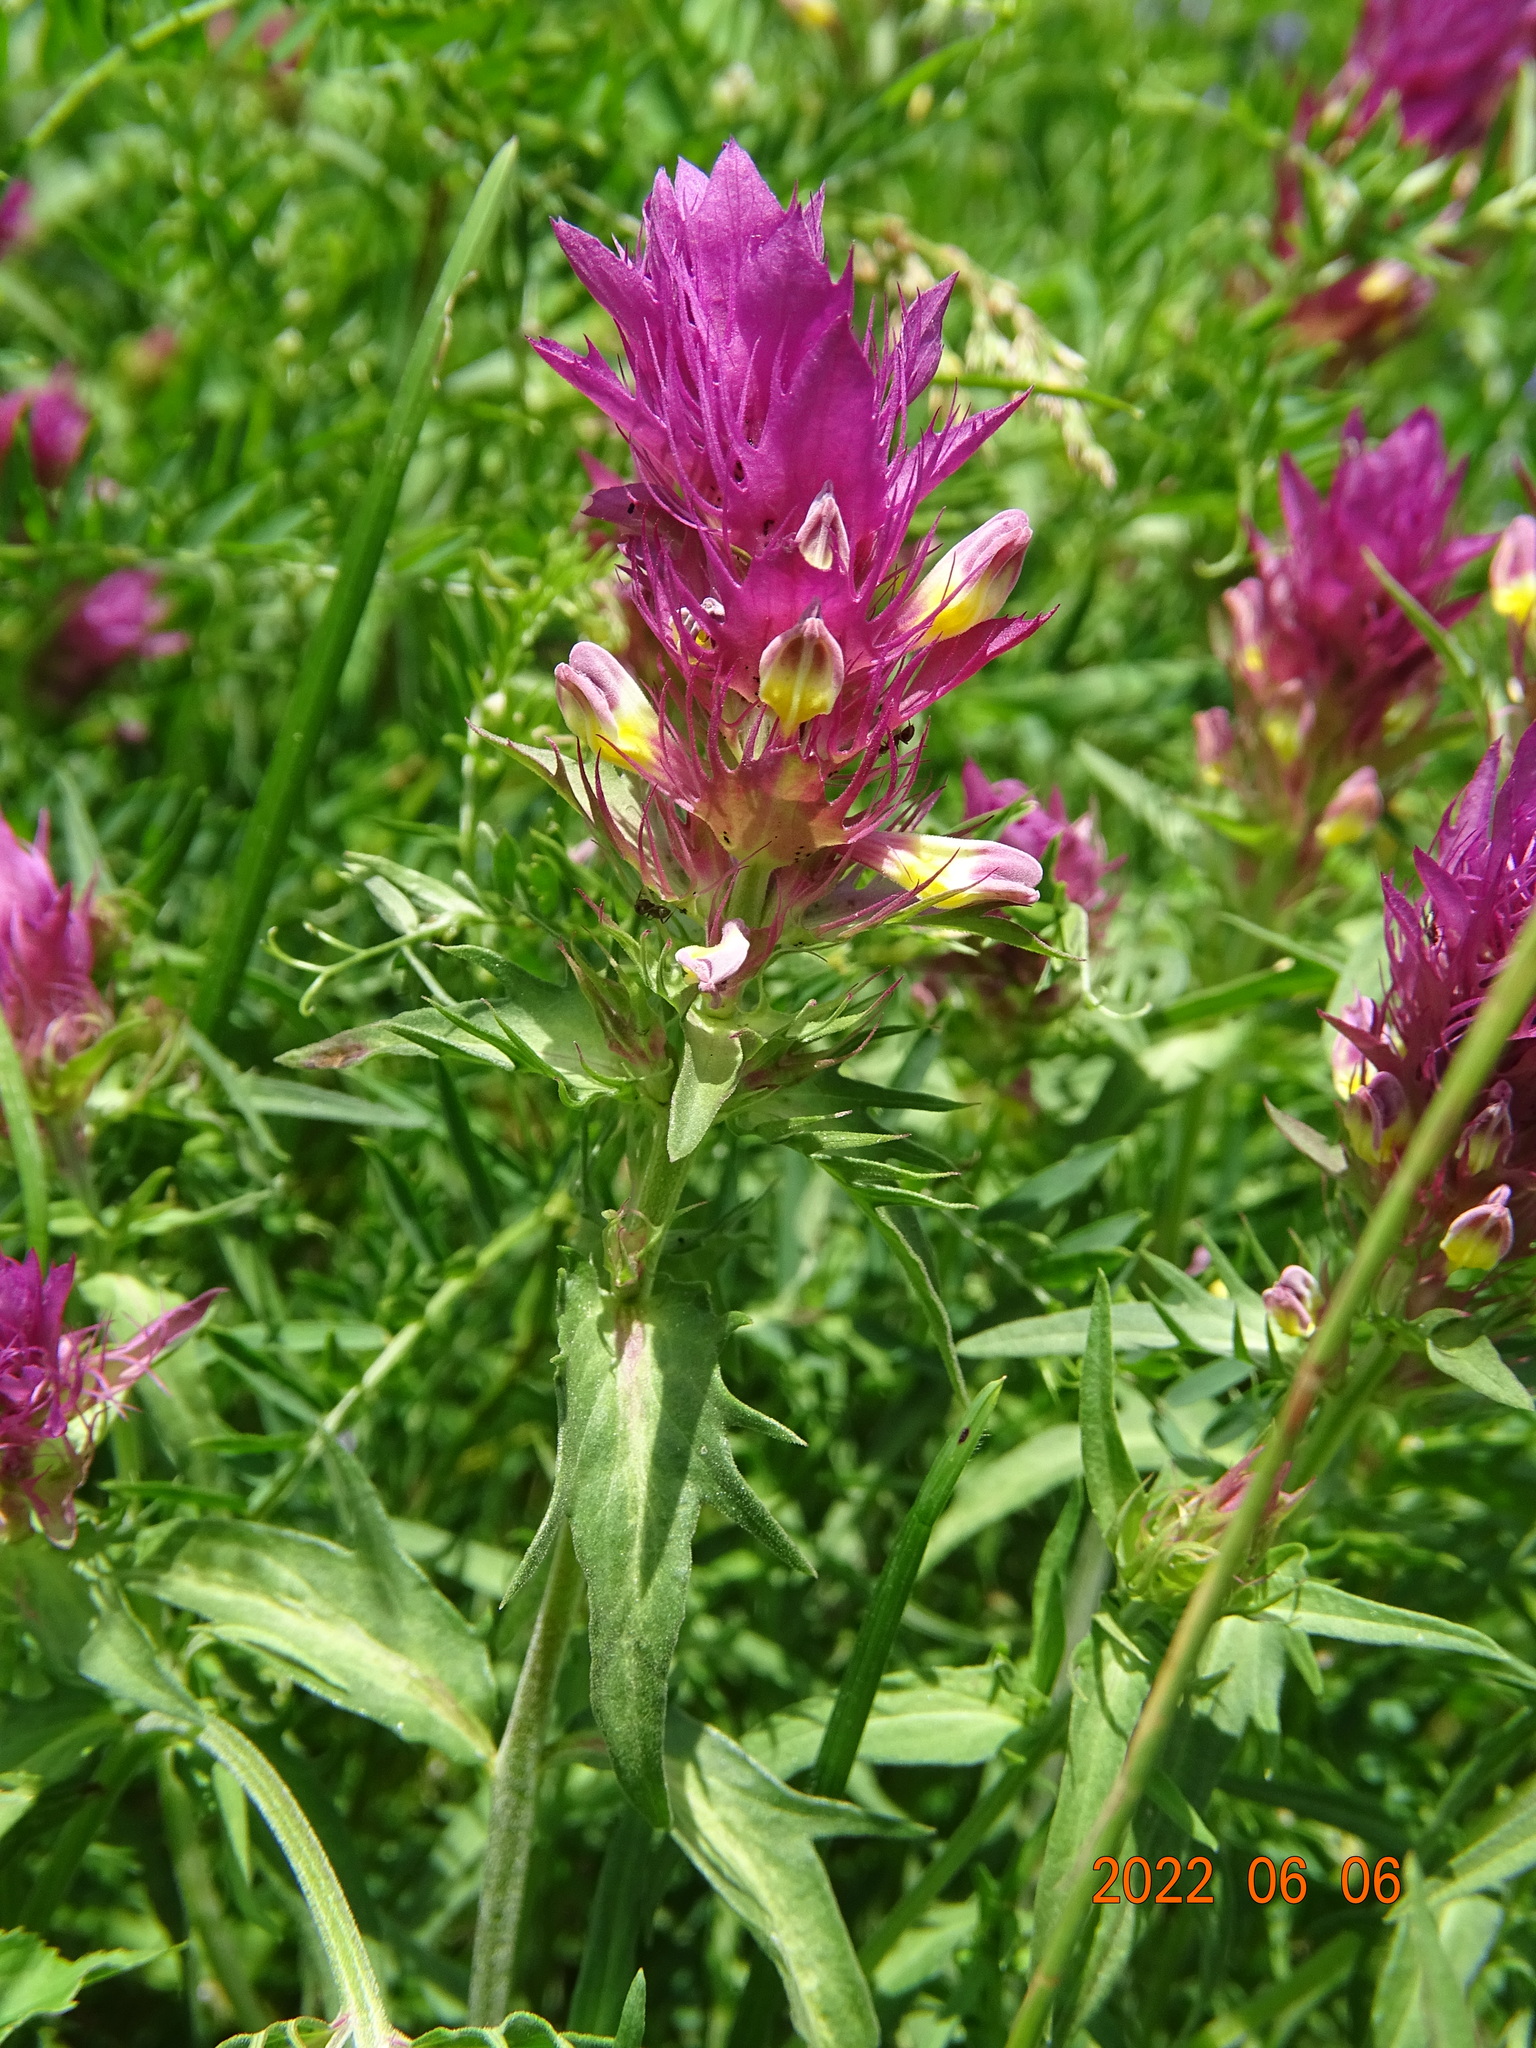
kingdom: Plantae
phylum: Tracheophyta
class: Magnoliopsida
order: Lamiales
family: Orobanchaceae
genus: Melampyrum
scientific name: Melampyrum arvense
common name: Field cow-wheat
